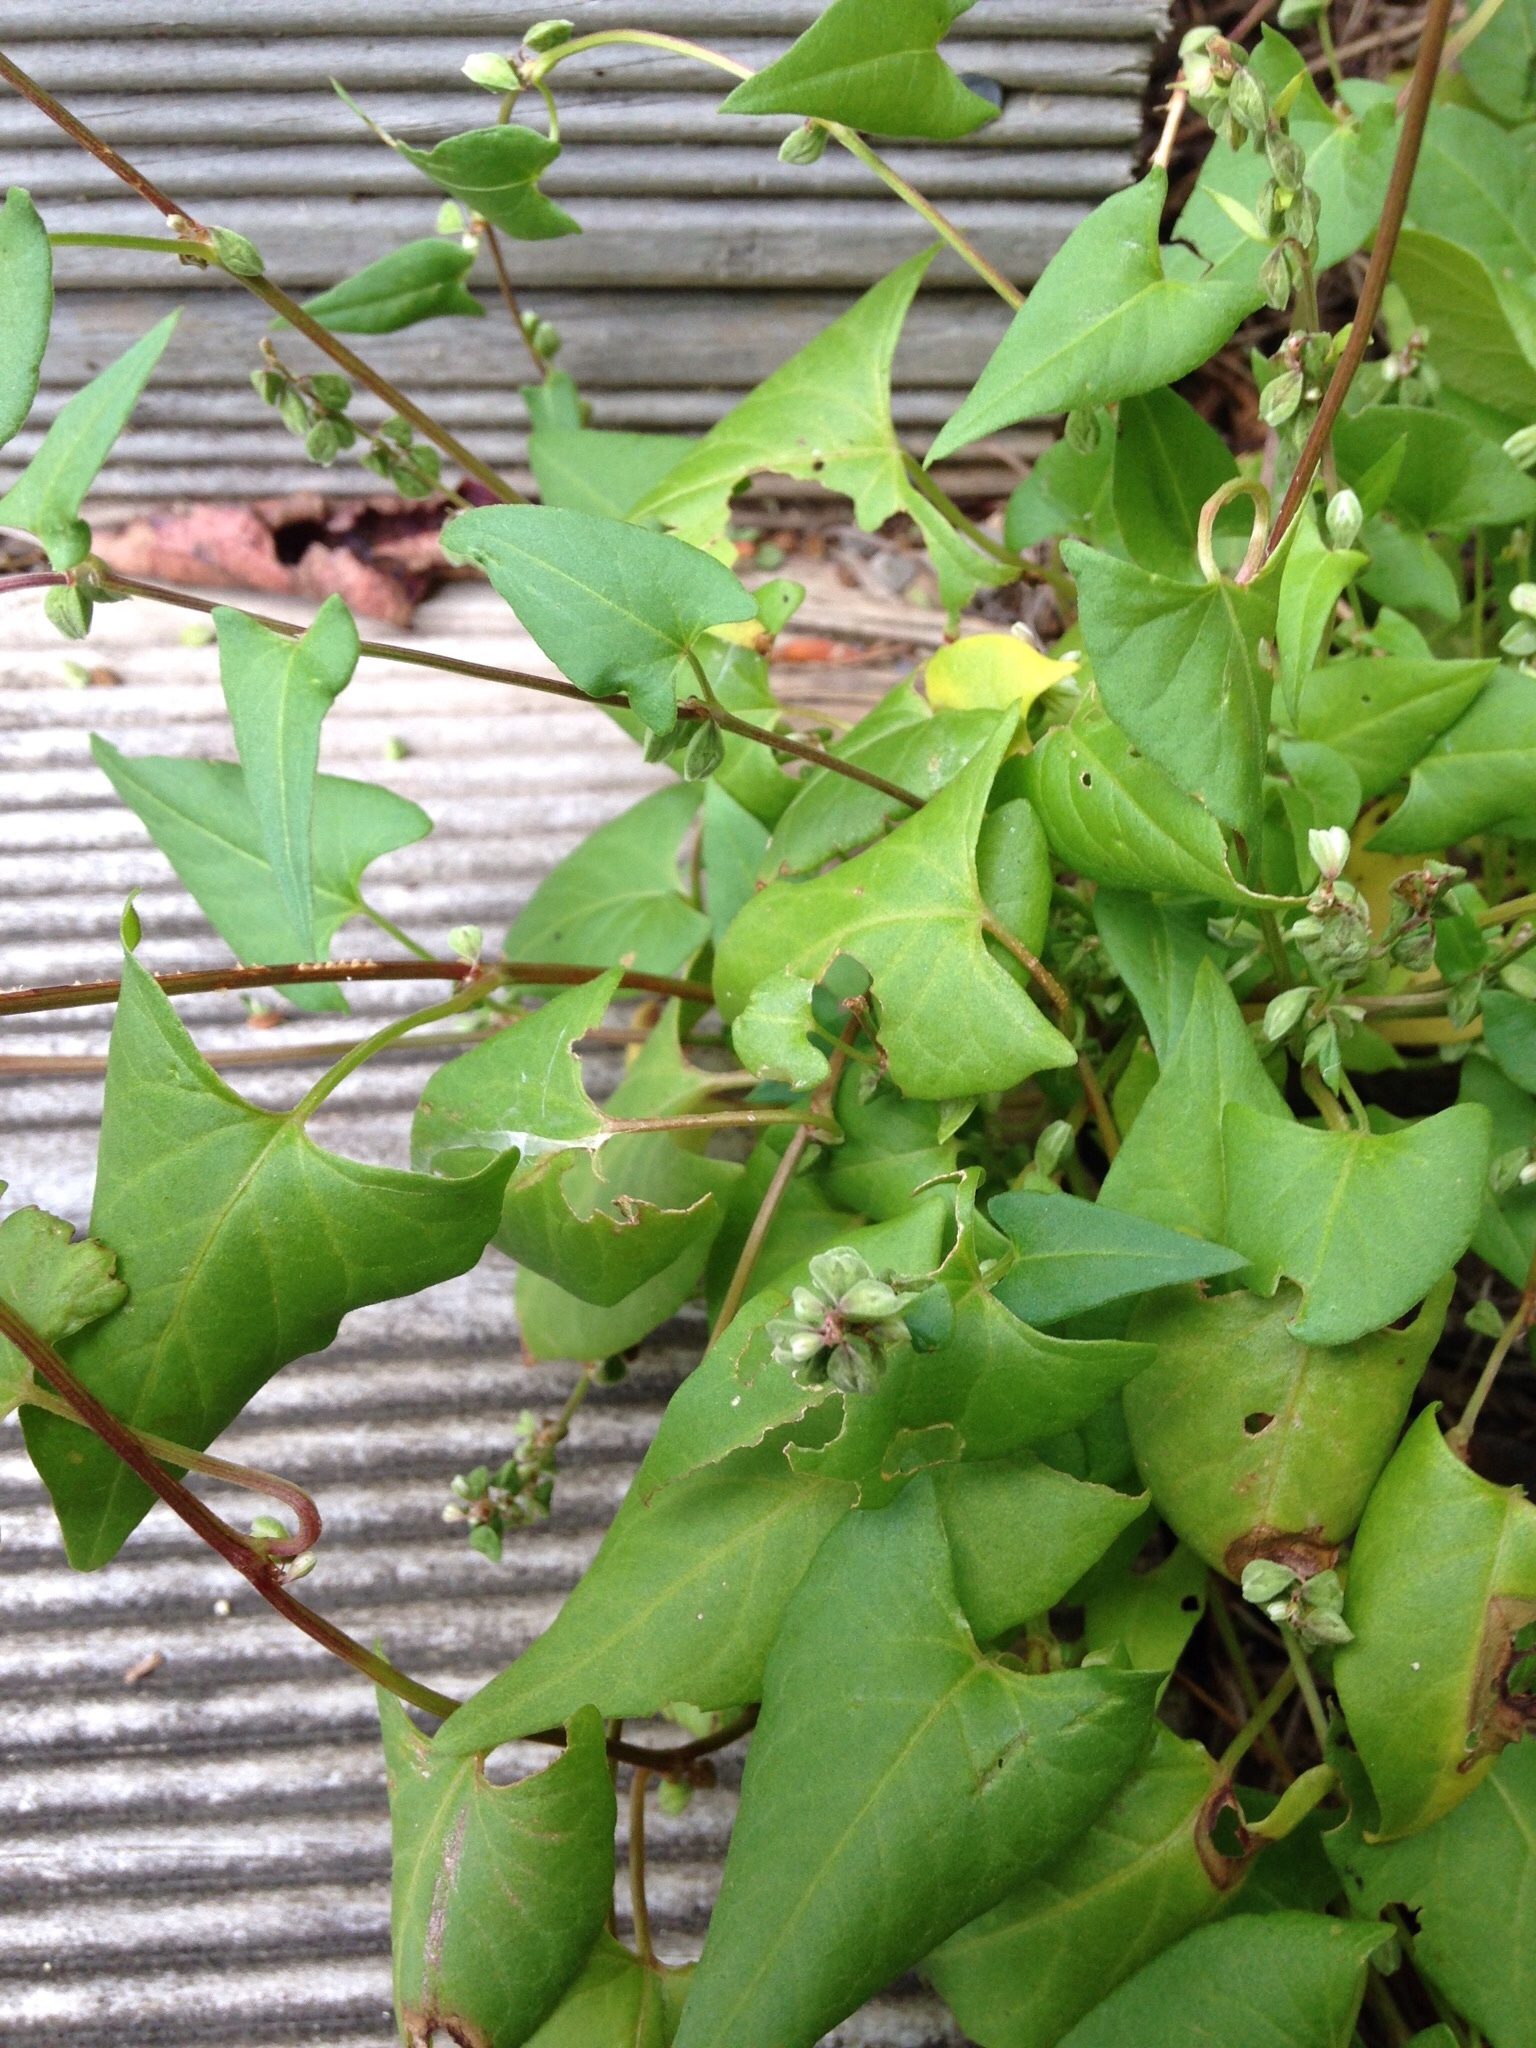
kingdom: Plantae
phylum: Tracheophyta
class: Magnoliopsida
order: Caryophyllales
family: Polygonaceae
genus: Fallopia
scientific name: Fallopia convolvulus
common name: Black bindweed
